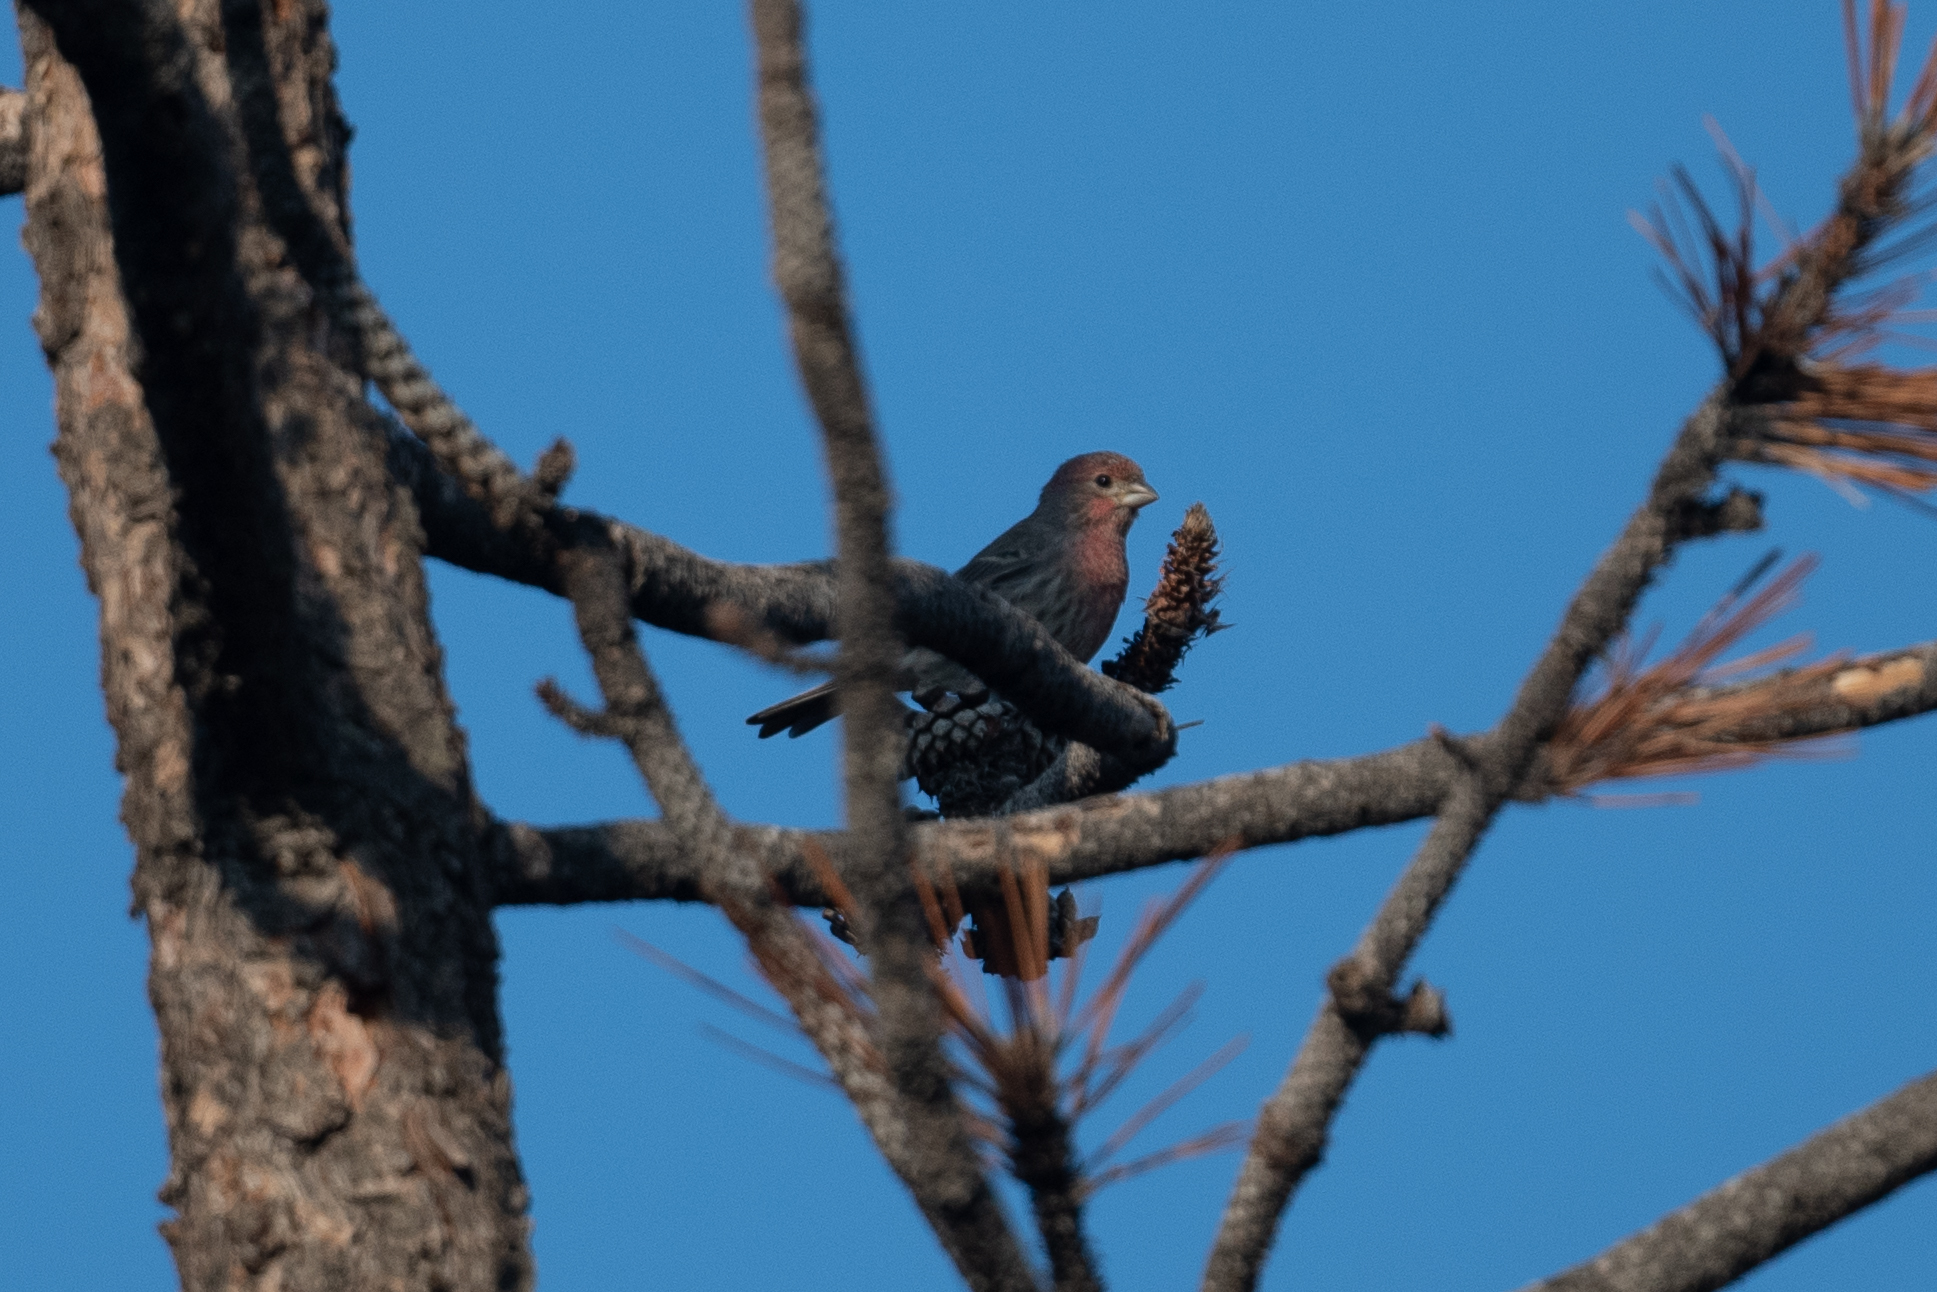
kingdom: Animalia
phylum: Chordata
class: Aves
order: Passeriformes
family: Fringillidae
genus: Haemorhous
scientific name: Haemorhous mexicanus
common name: House finch
